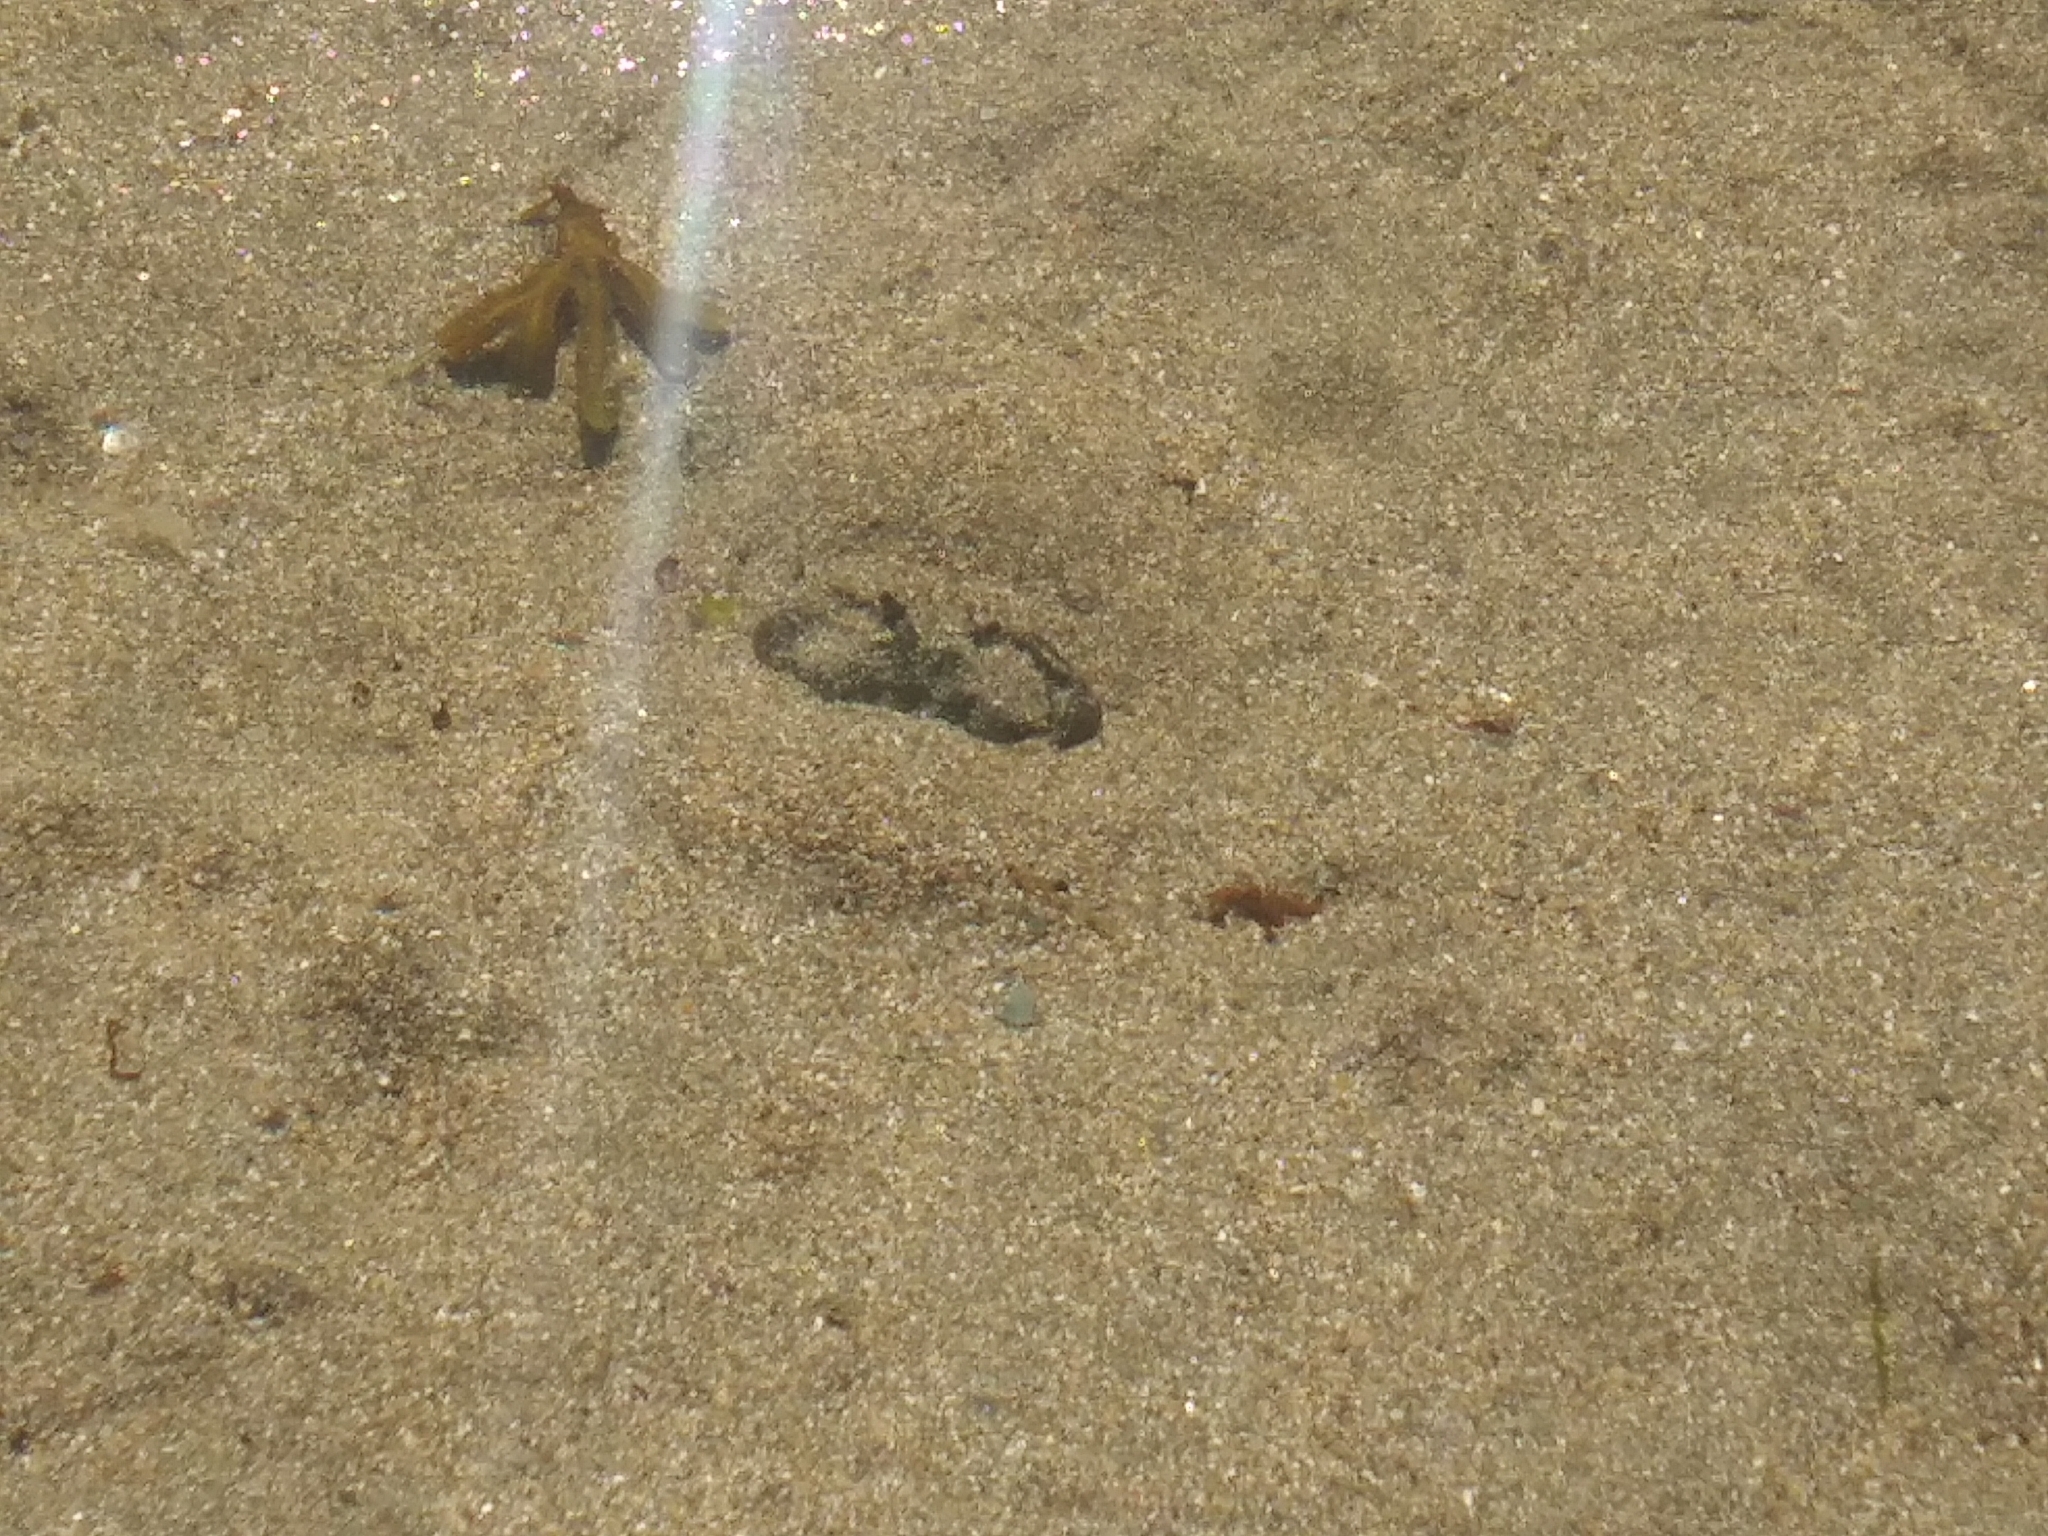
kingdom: Animalia
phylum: Arthropoda
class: Malacostraca
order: Decapoda
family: Carcinidae
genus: Carcinus
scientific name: Carcinus maenas
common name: European green crab
